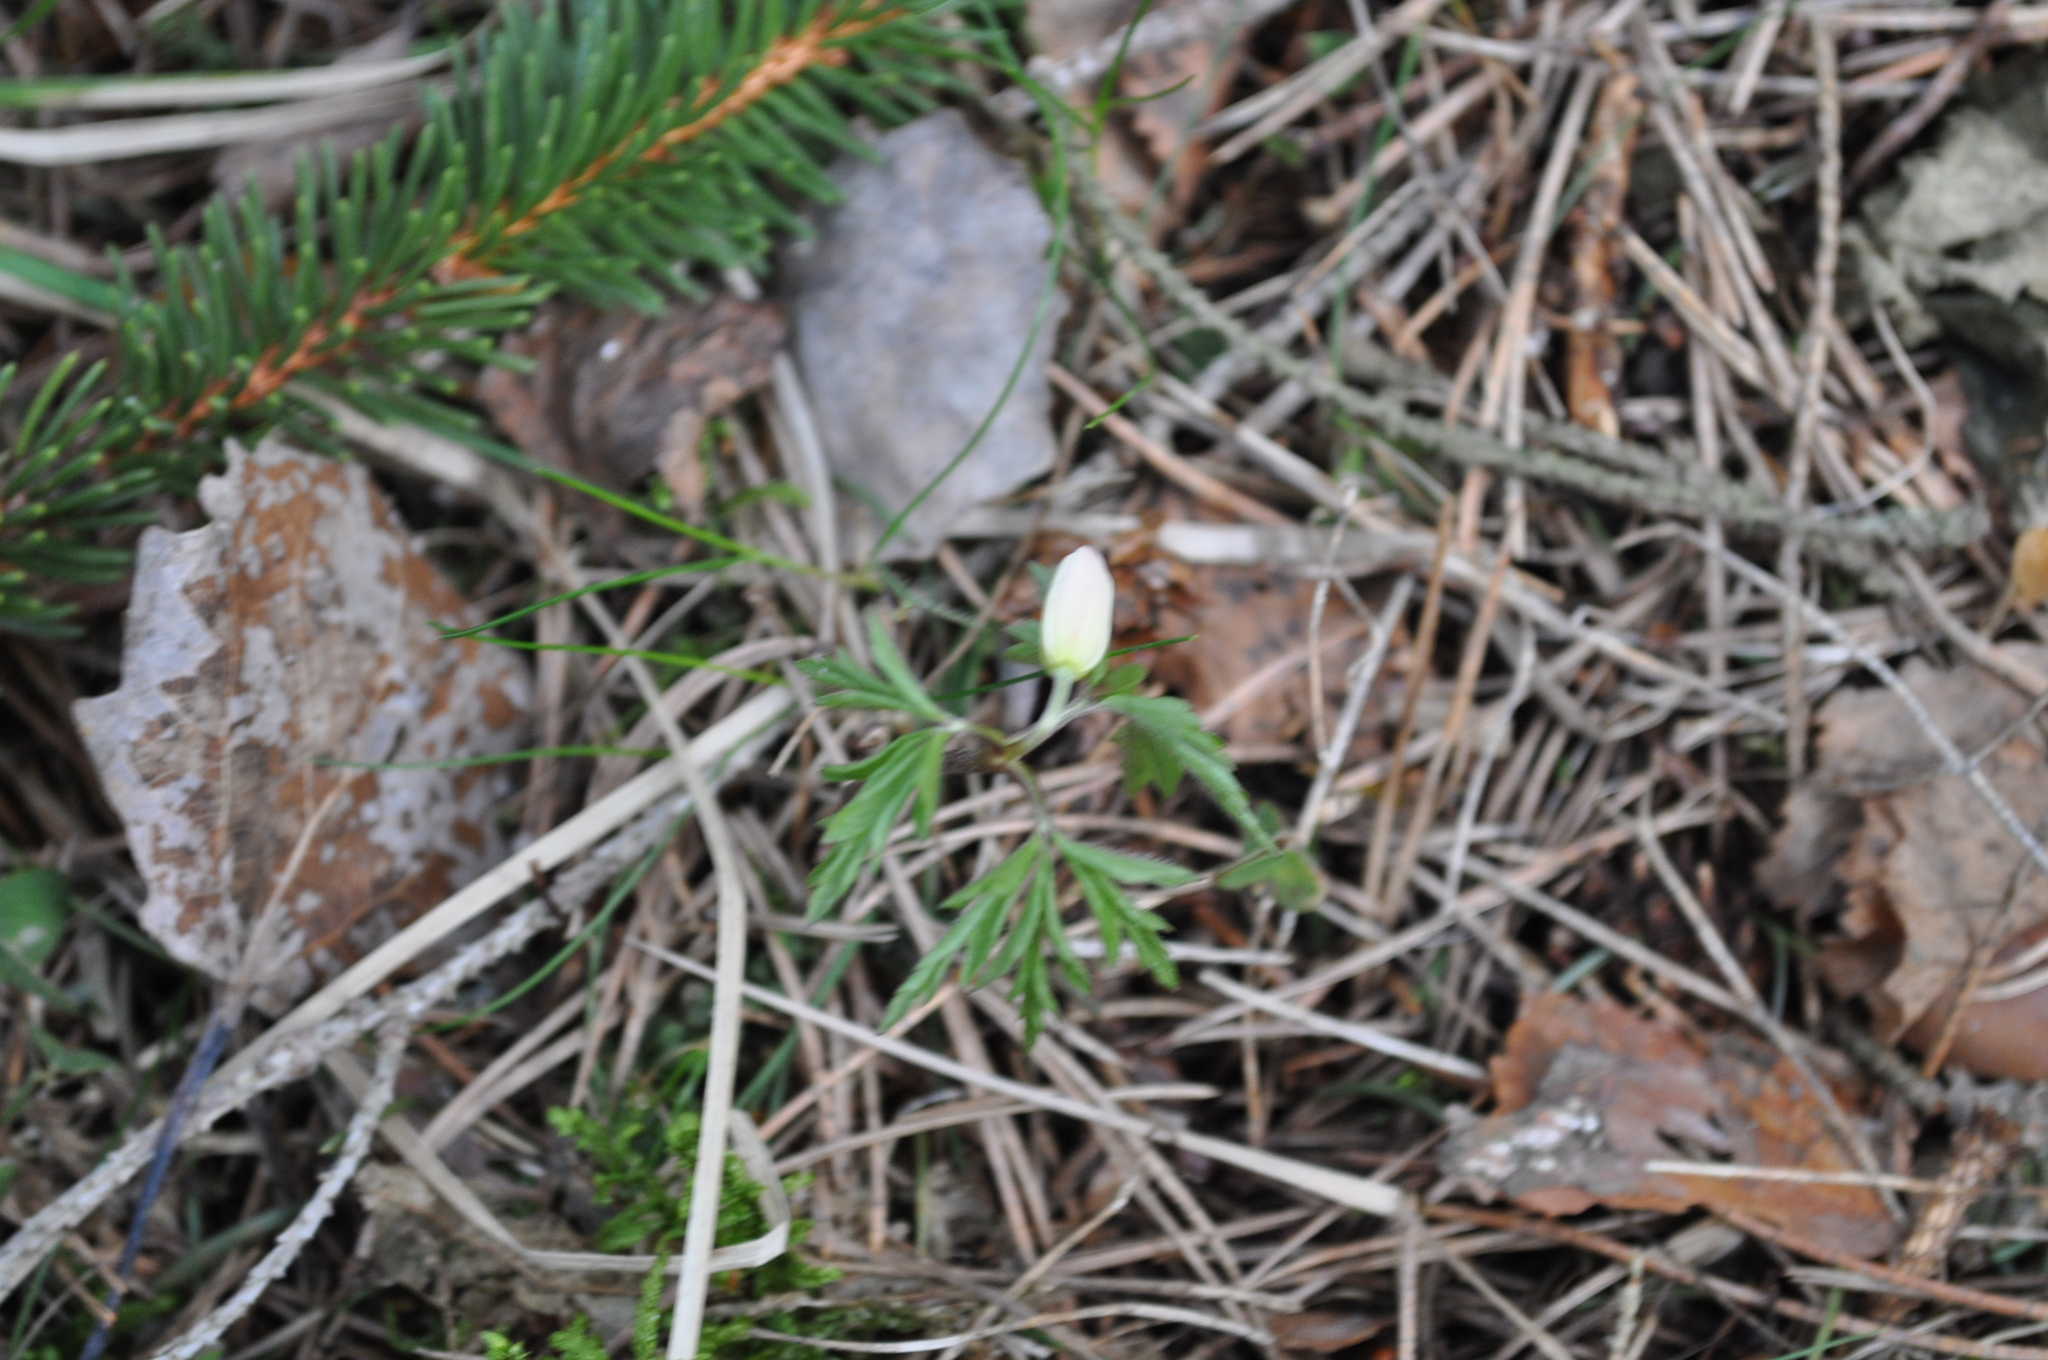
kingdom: Plantae
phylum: Tracheophyta
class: Magnoliopsida
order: Ranunculales
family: Ranunculaceae
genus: Anemone
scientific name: Anemone nemorosa
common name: Wood anemone
